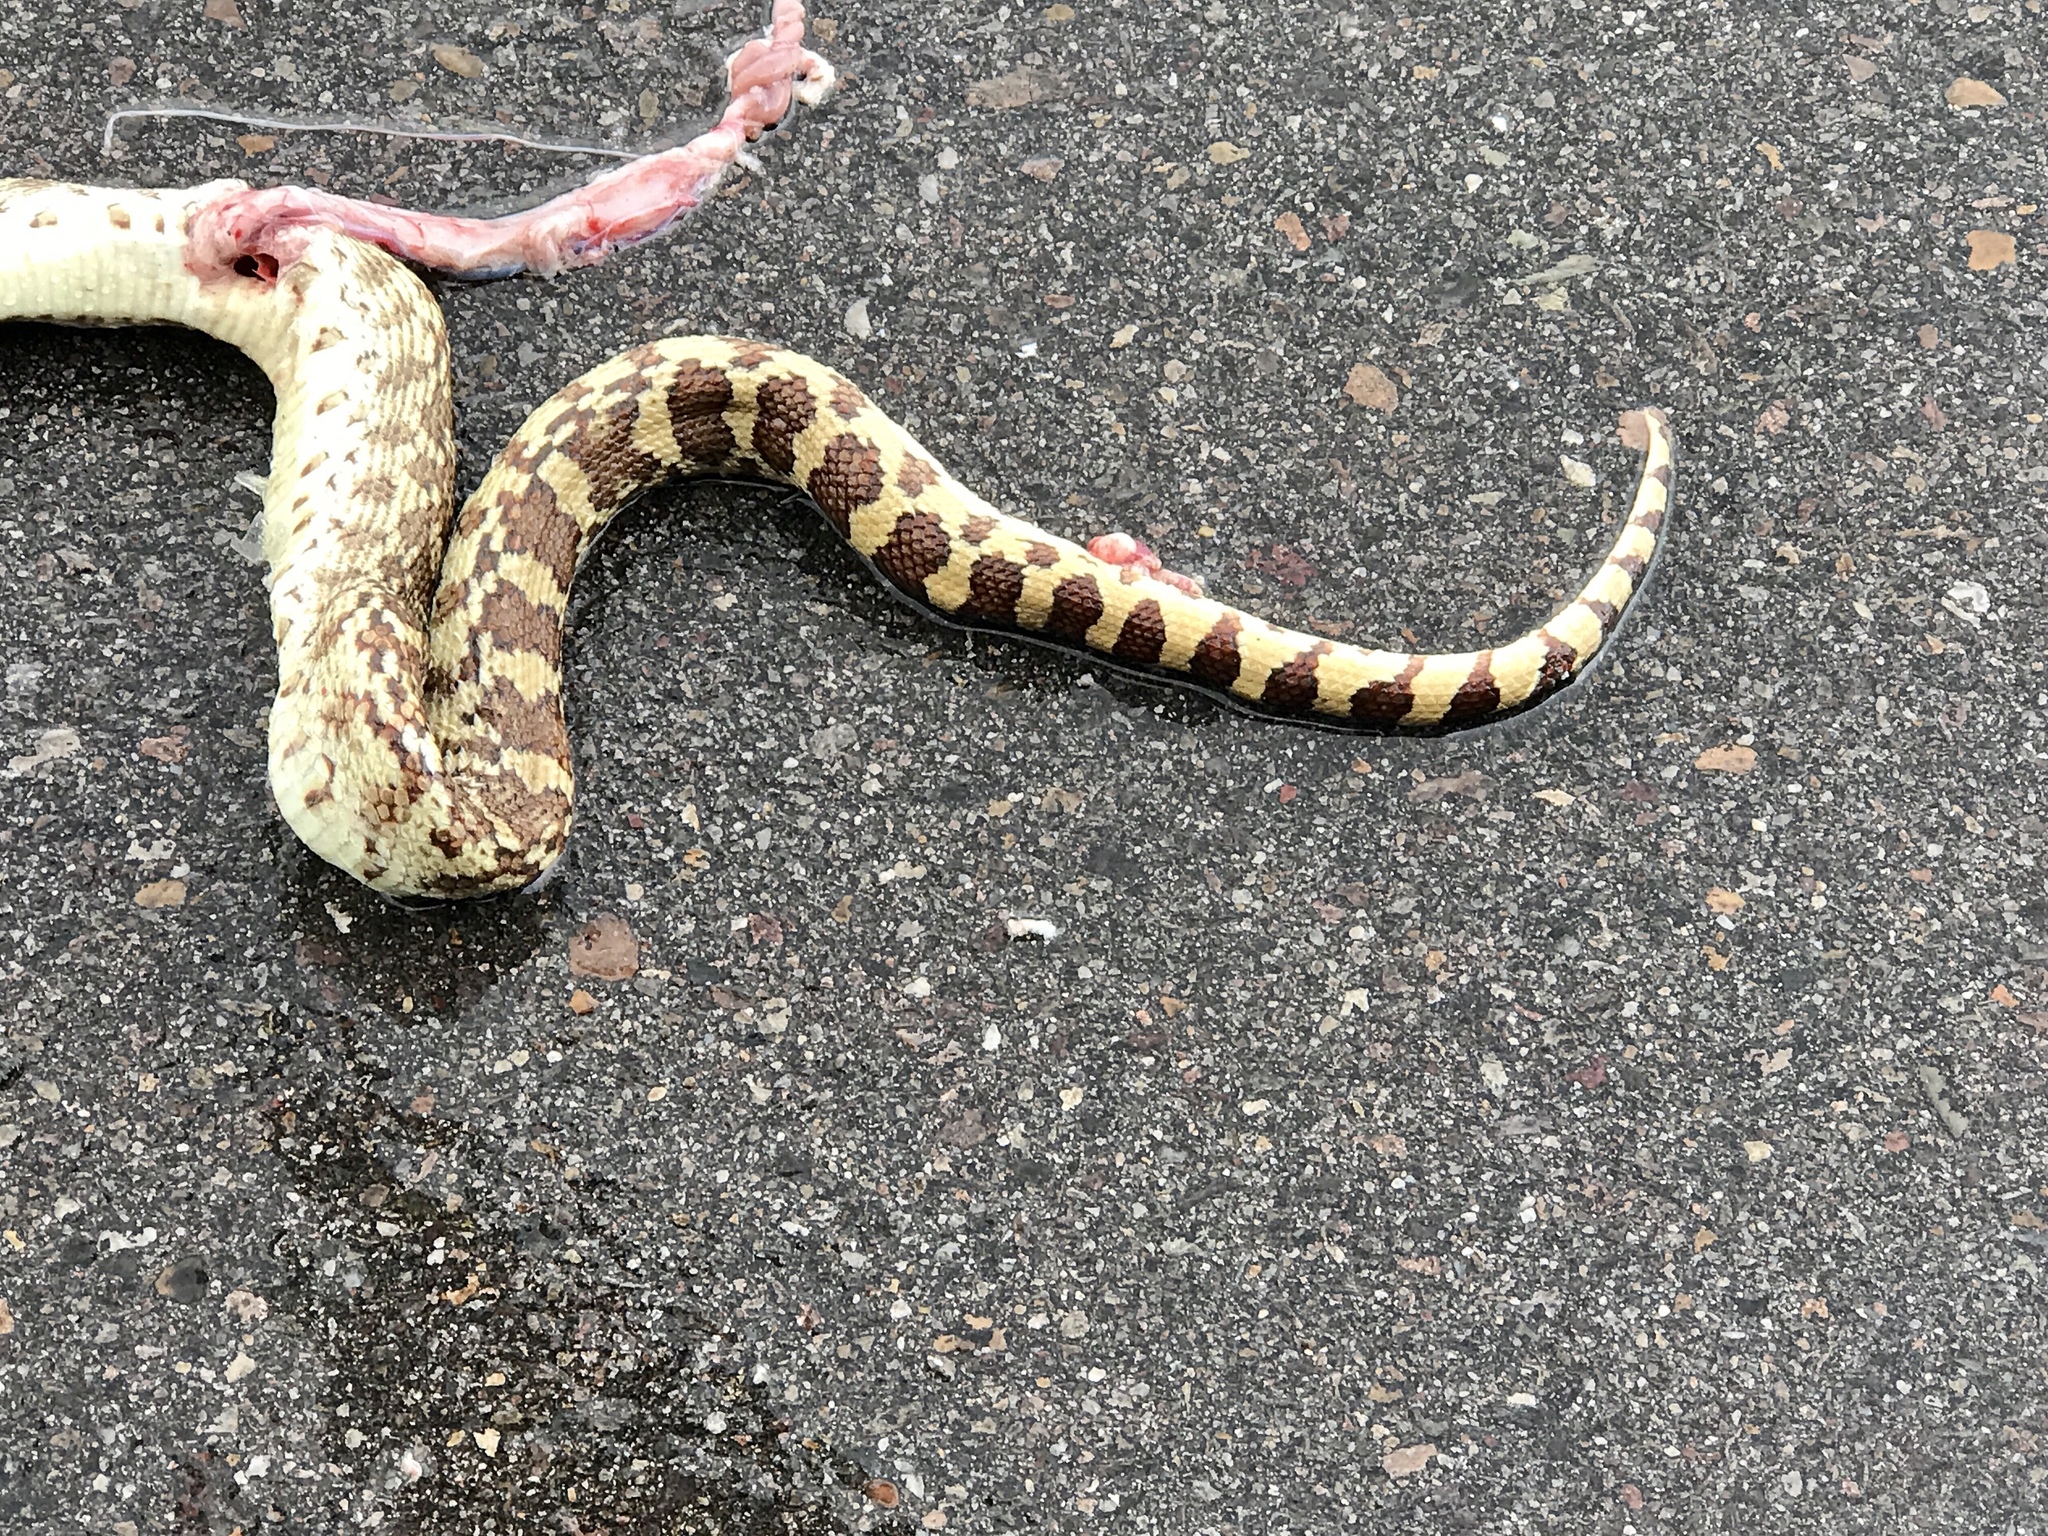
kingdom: Animalia
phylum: Chordata
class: Squamata
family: Colubridae
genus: Pituophis
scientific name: Pituophis catenifer
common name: Gopher snake
